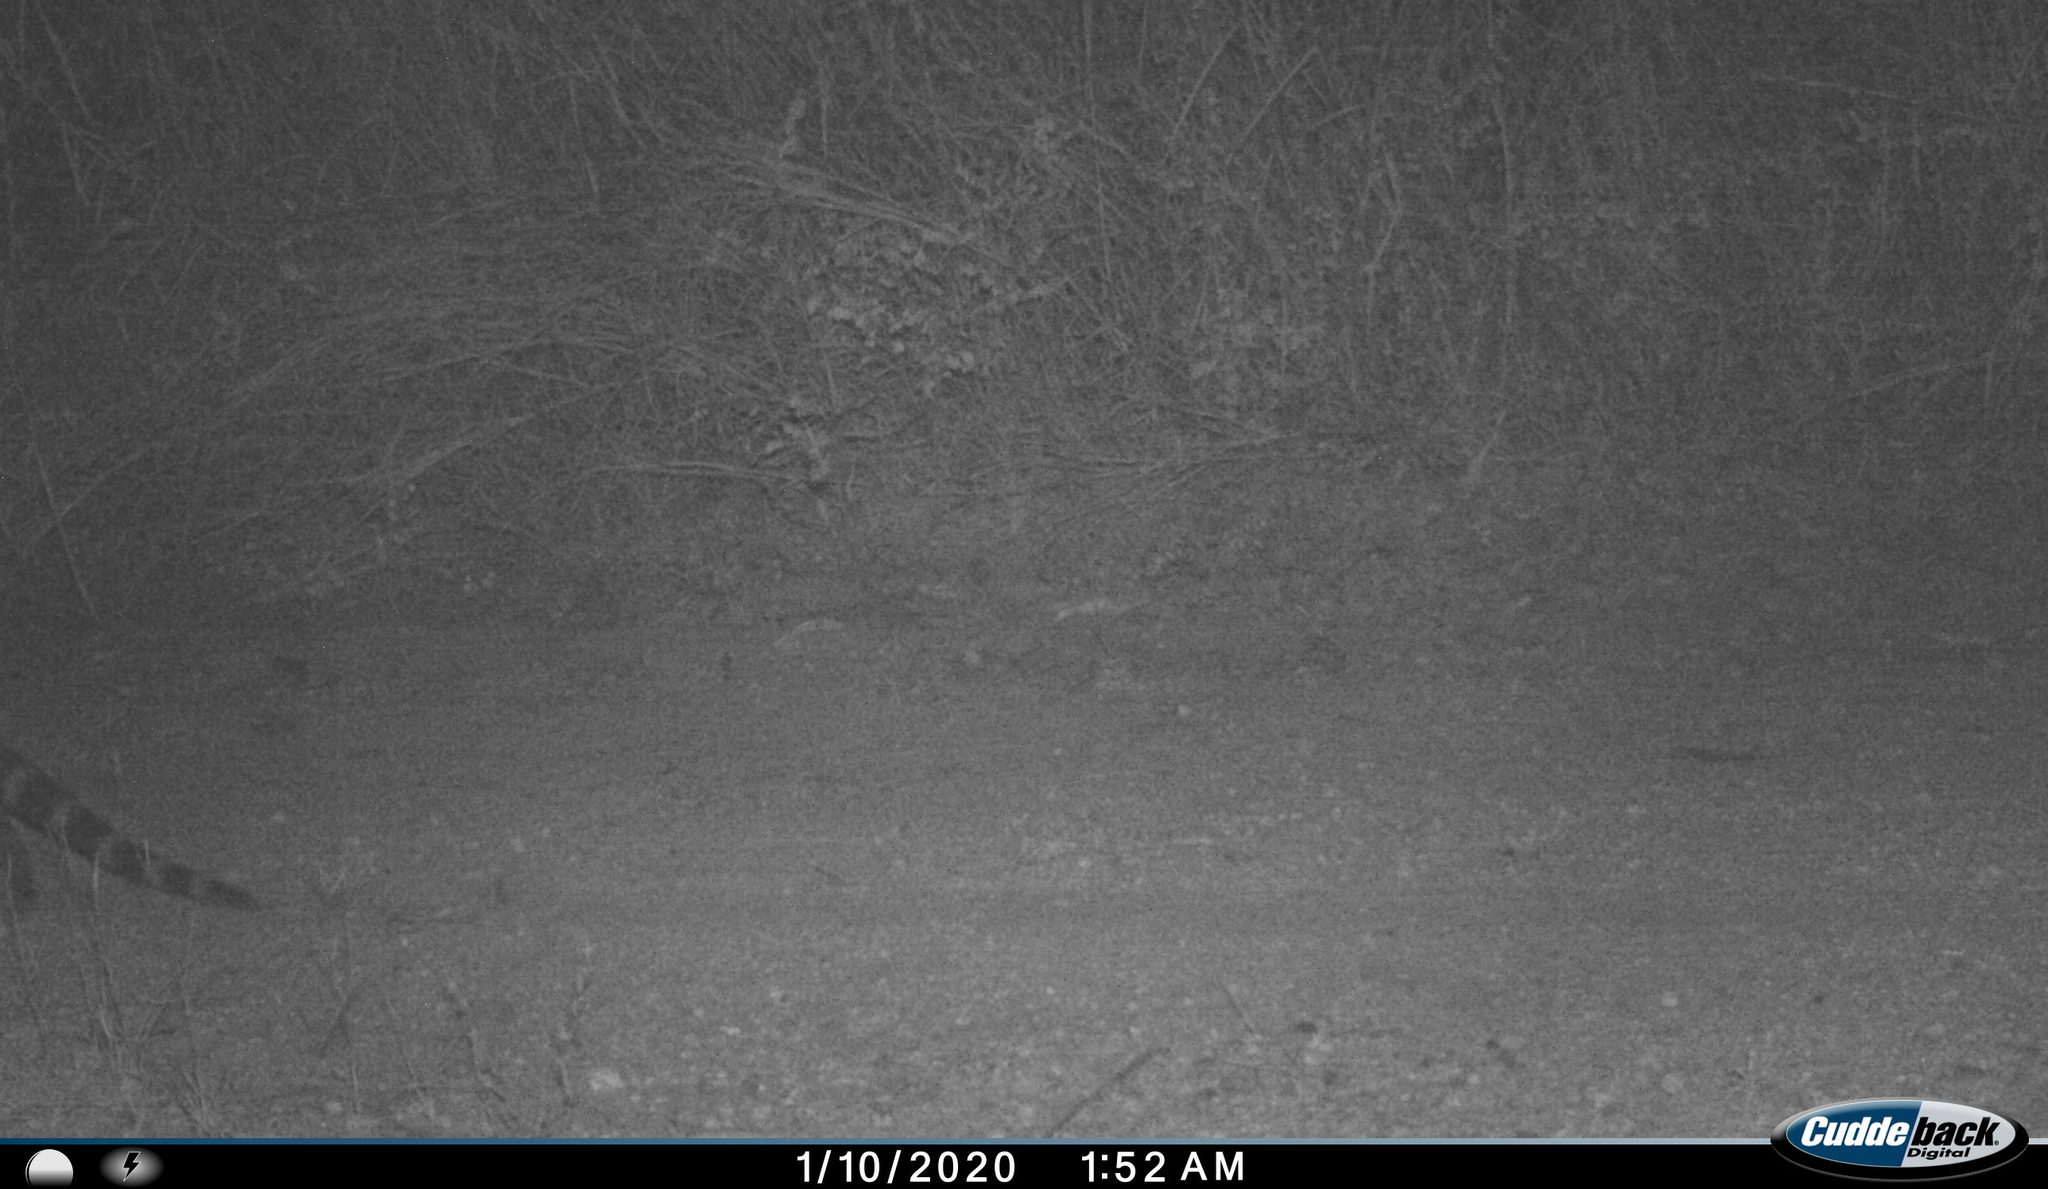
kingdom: Animalia
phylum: Chordata
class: Mammalia
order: Carnivora
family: Viverridae
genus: Viverricula
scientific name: Viverricula indica
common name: Small indian civet
